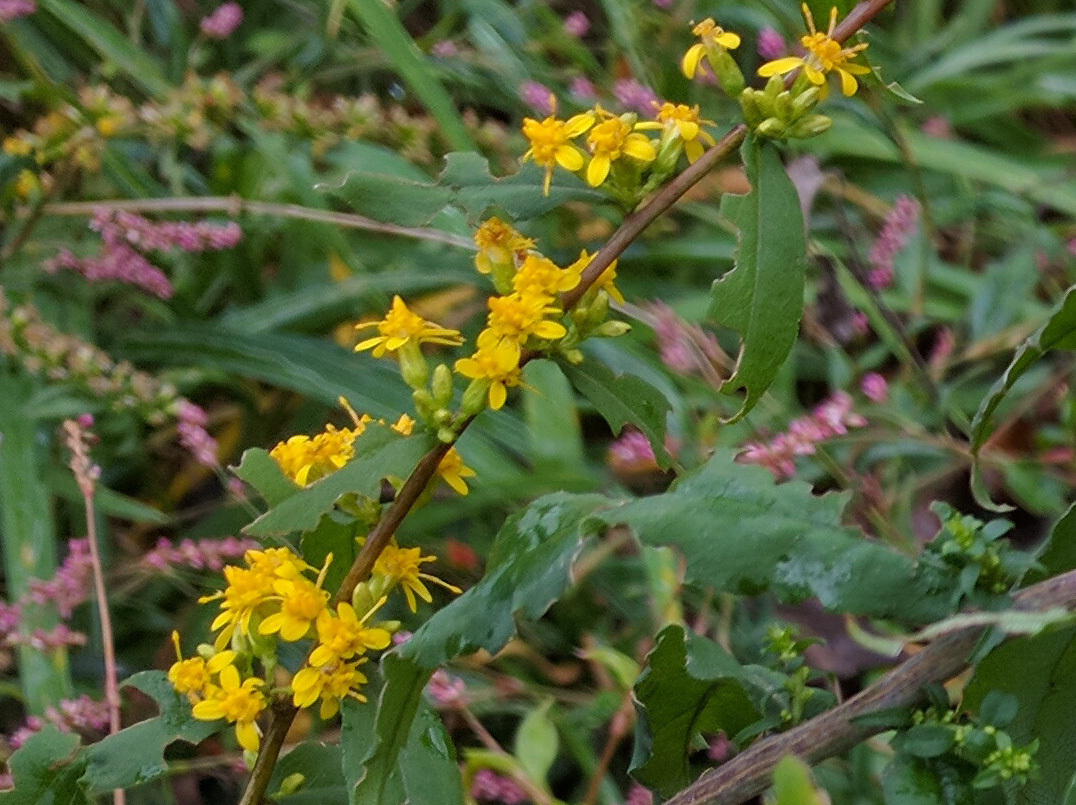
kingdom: Plantae
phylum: Tracheophyta
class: Magnoliopsida
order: Asterales
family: Asteraceae
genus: Solidago
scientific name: Solidago caesia
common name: Woodland goldenrod
